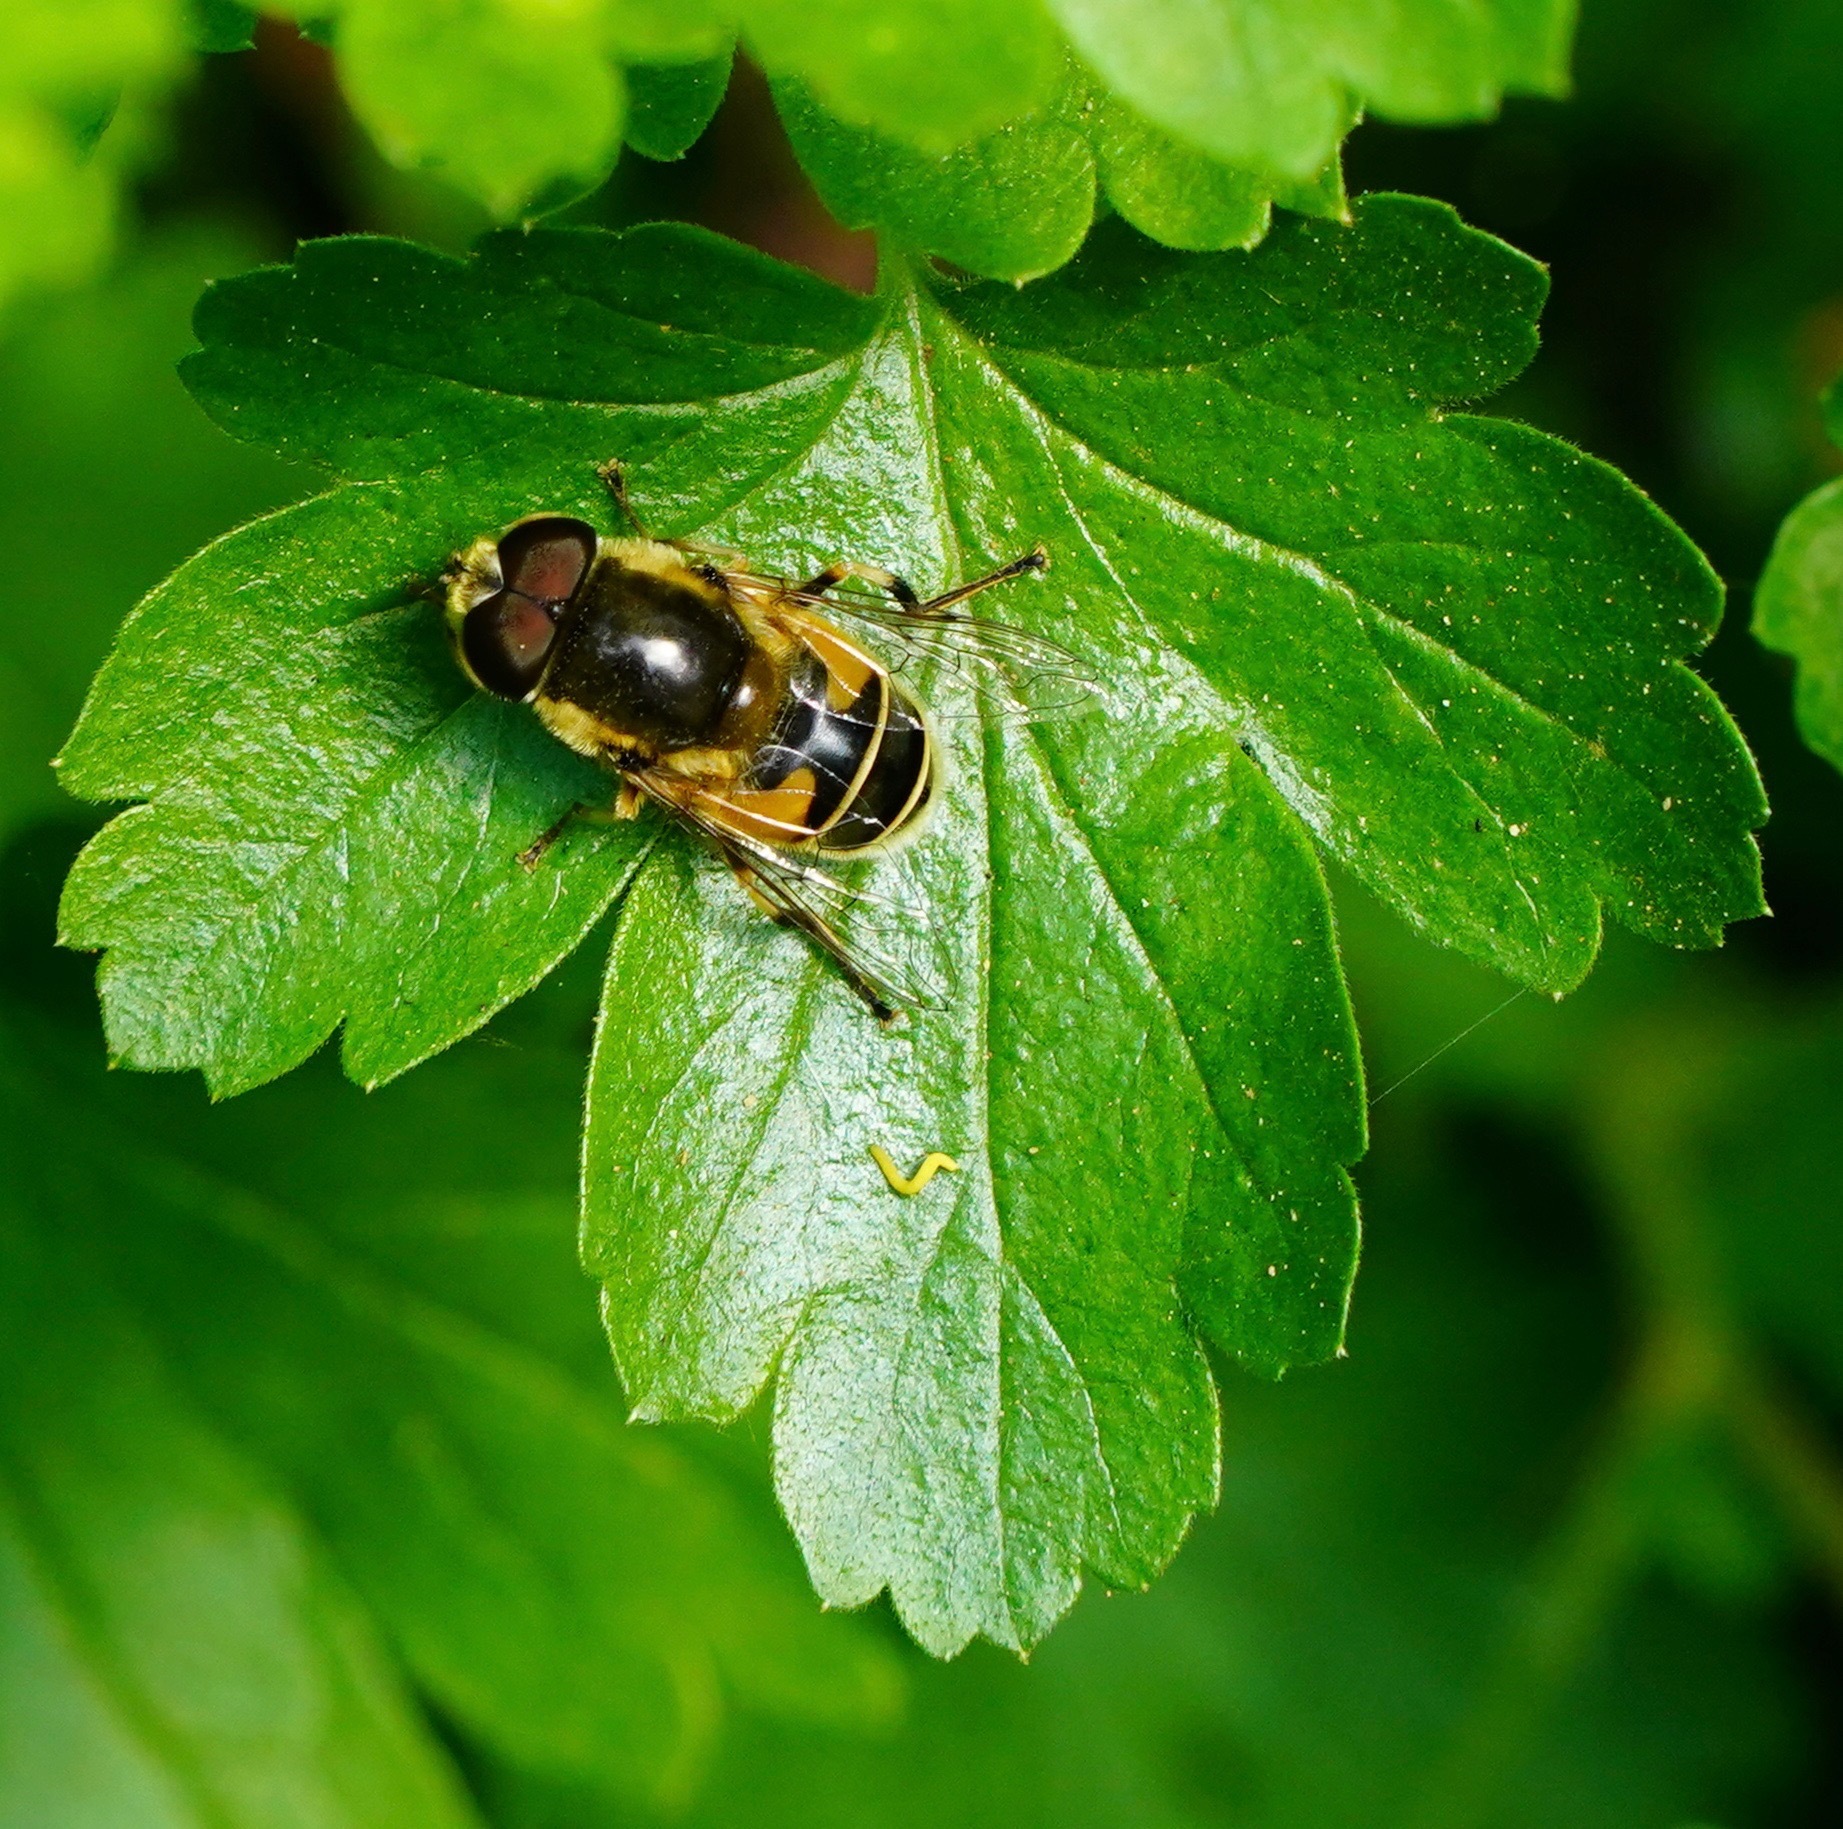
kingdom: Animalia
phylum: Arthropoda
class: Insecta
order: Diptera
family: Syrphidae
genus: Eristalis
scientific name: Eristalis hirta
